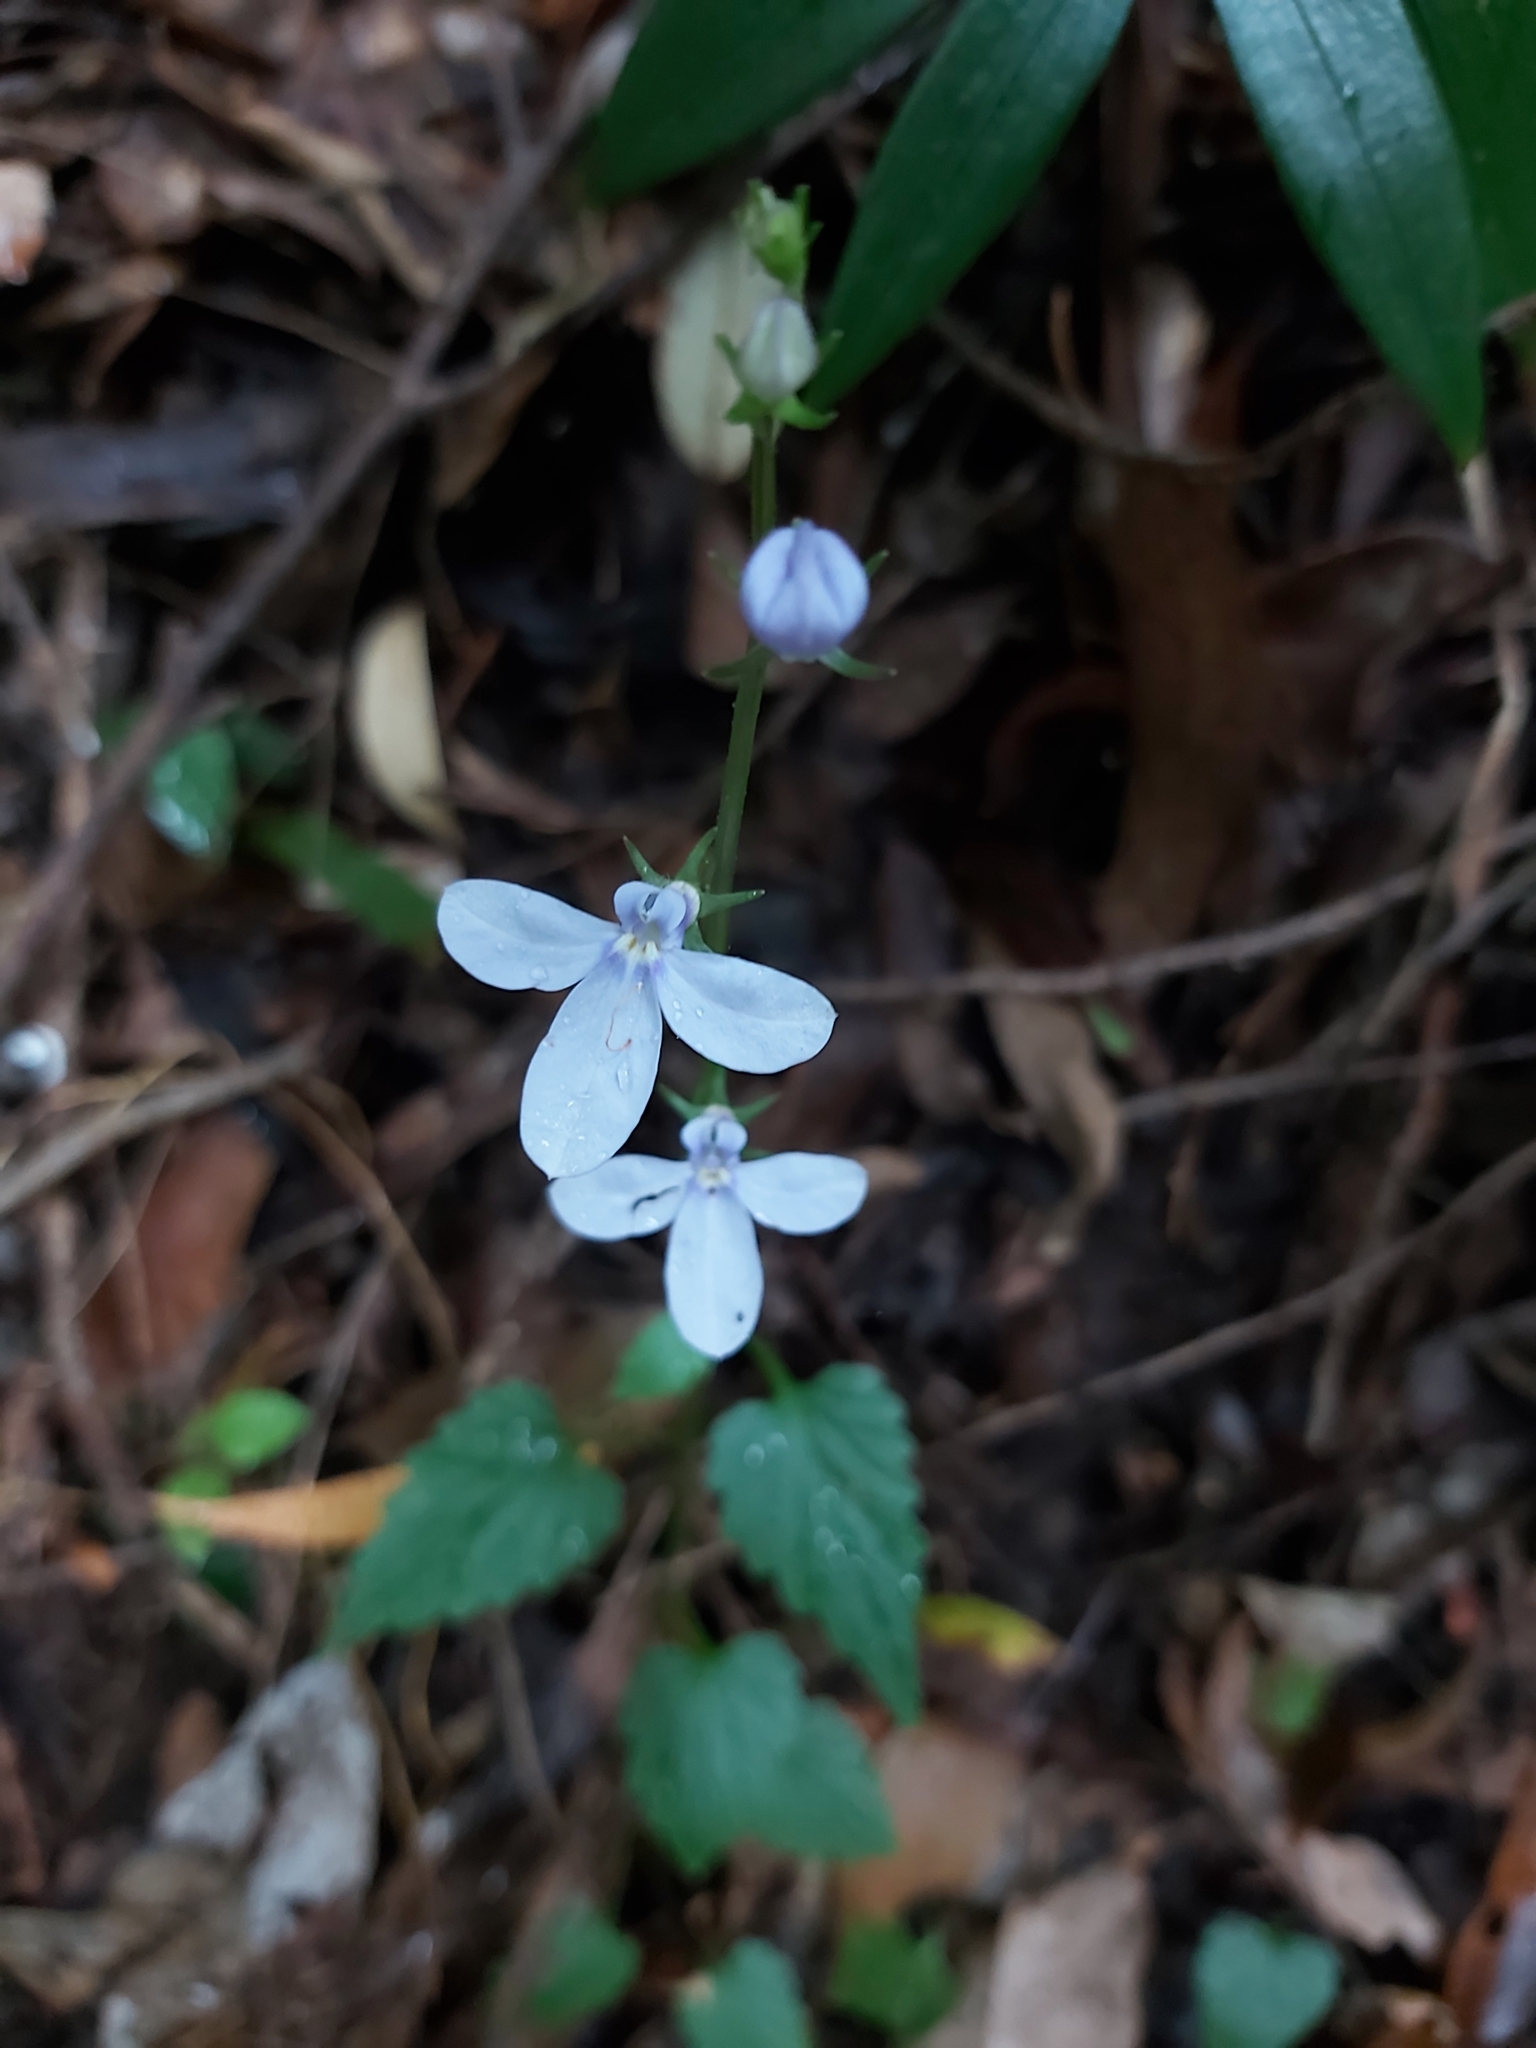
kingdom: Plantae
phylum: Tracheophyta
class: Magnoliopsida
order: Asterales
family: Campanulaceae
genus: Lobelia
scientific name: Lobelia trigonocaulis
